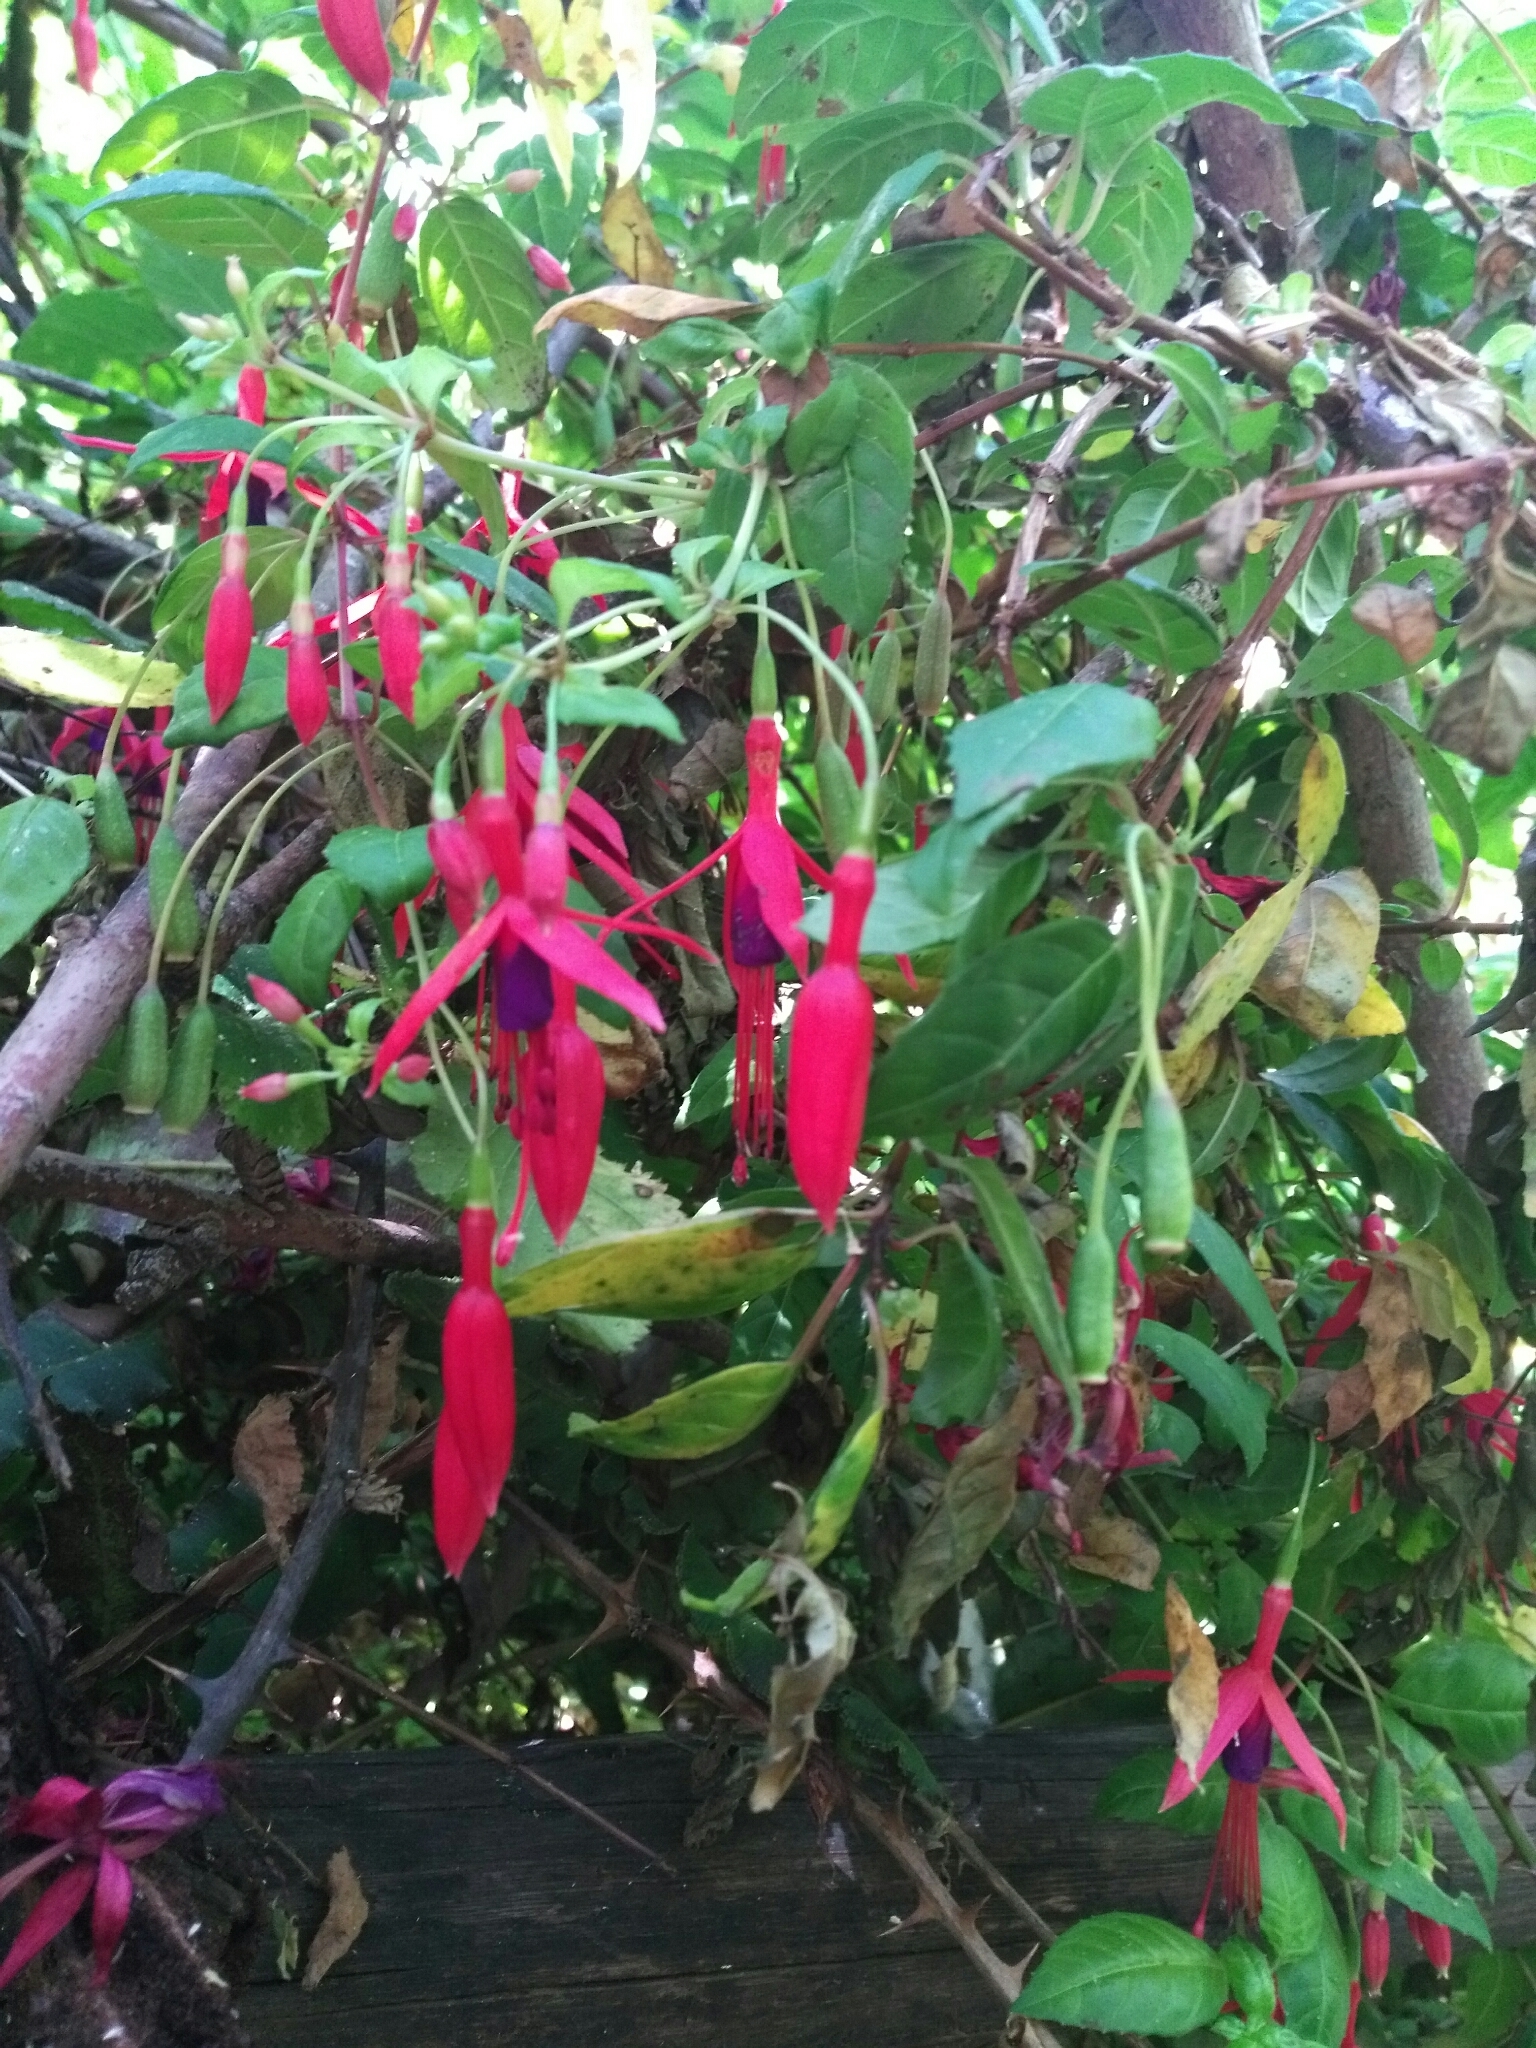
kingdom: Plantae
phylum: Tracheophyta
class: Magnoliopsida
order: Myrtales
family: Onagraceae
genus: Fuchsia
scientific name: Fuchsia magellanica
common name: Hardy fuchsia
